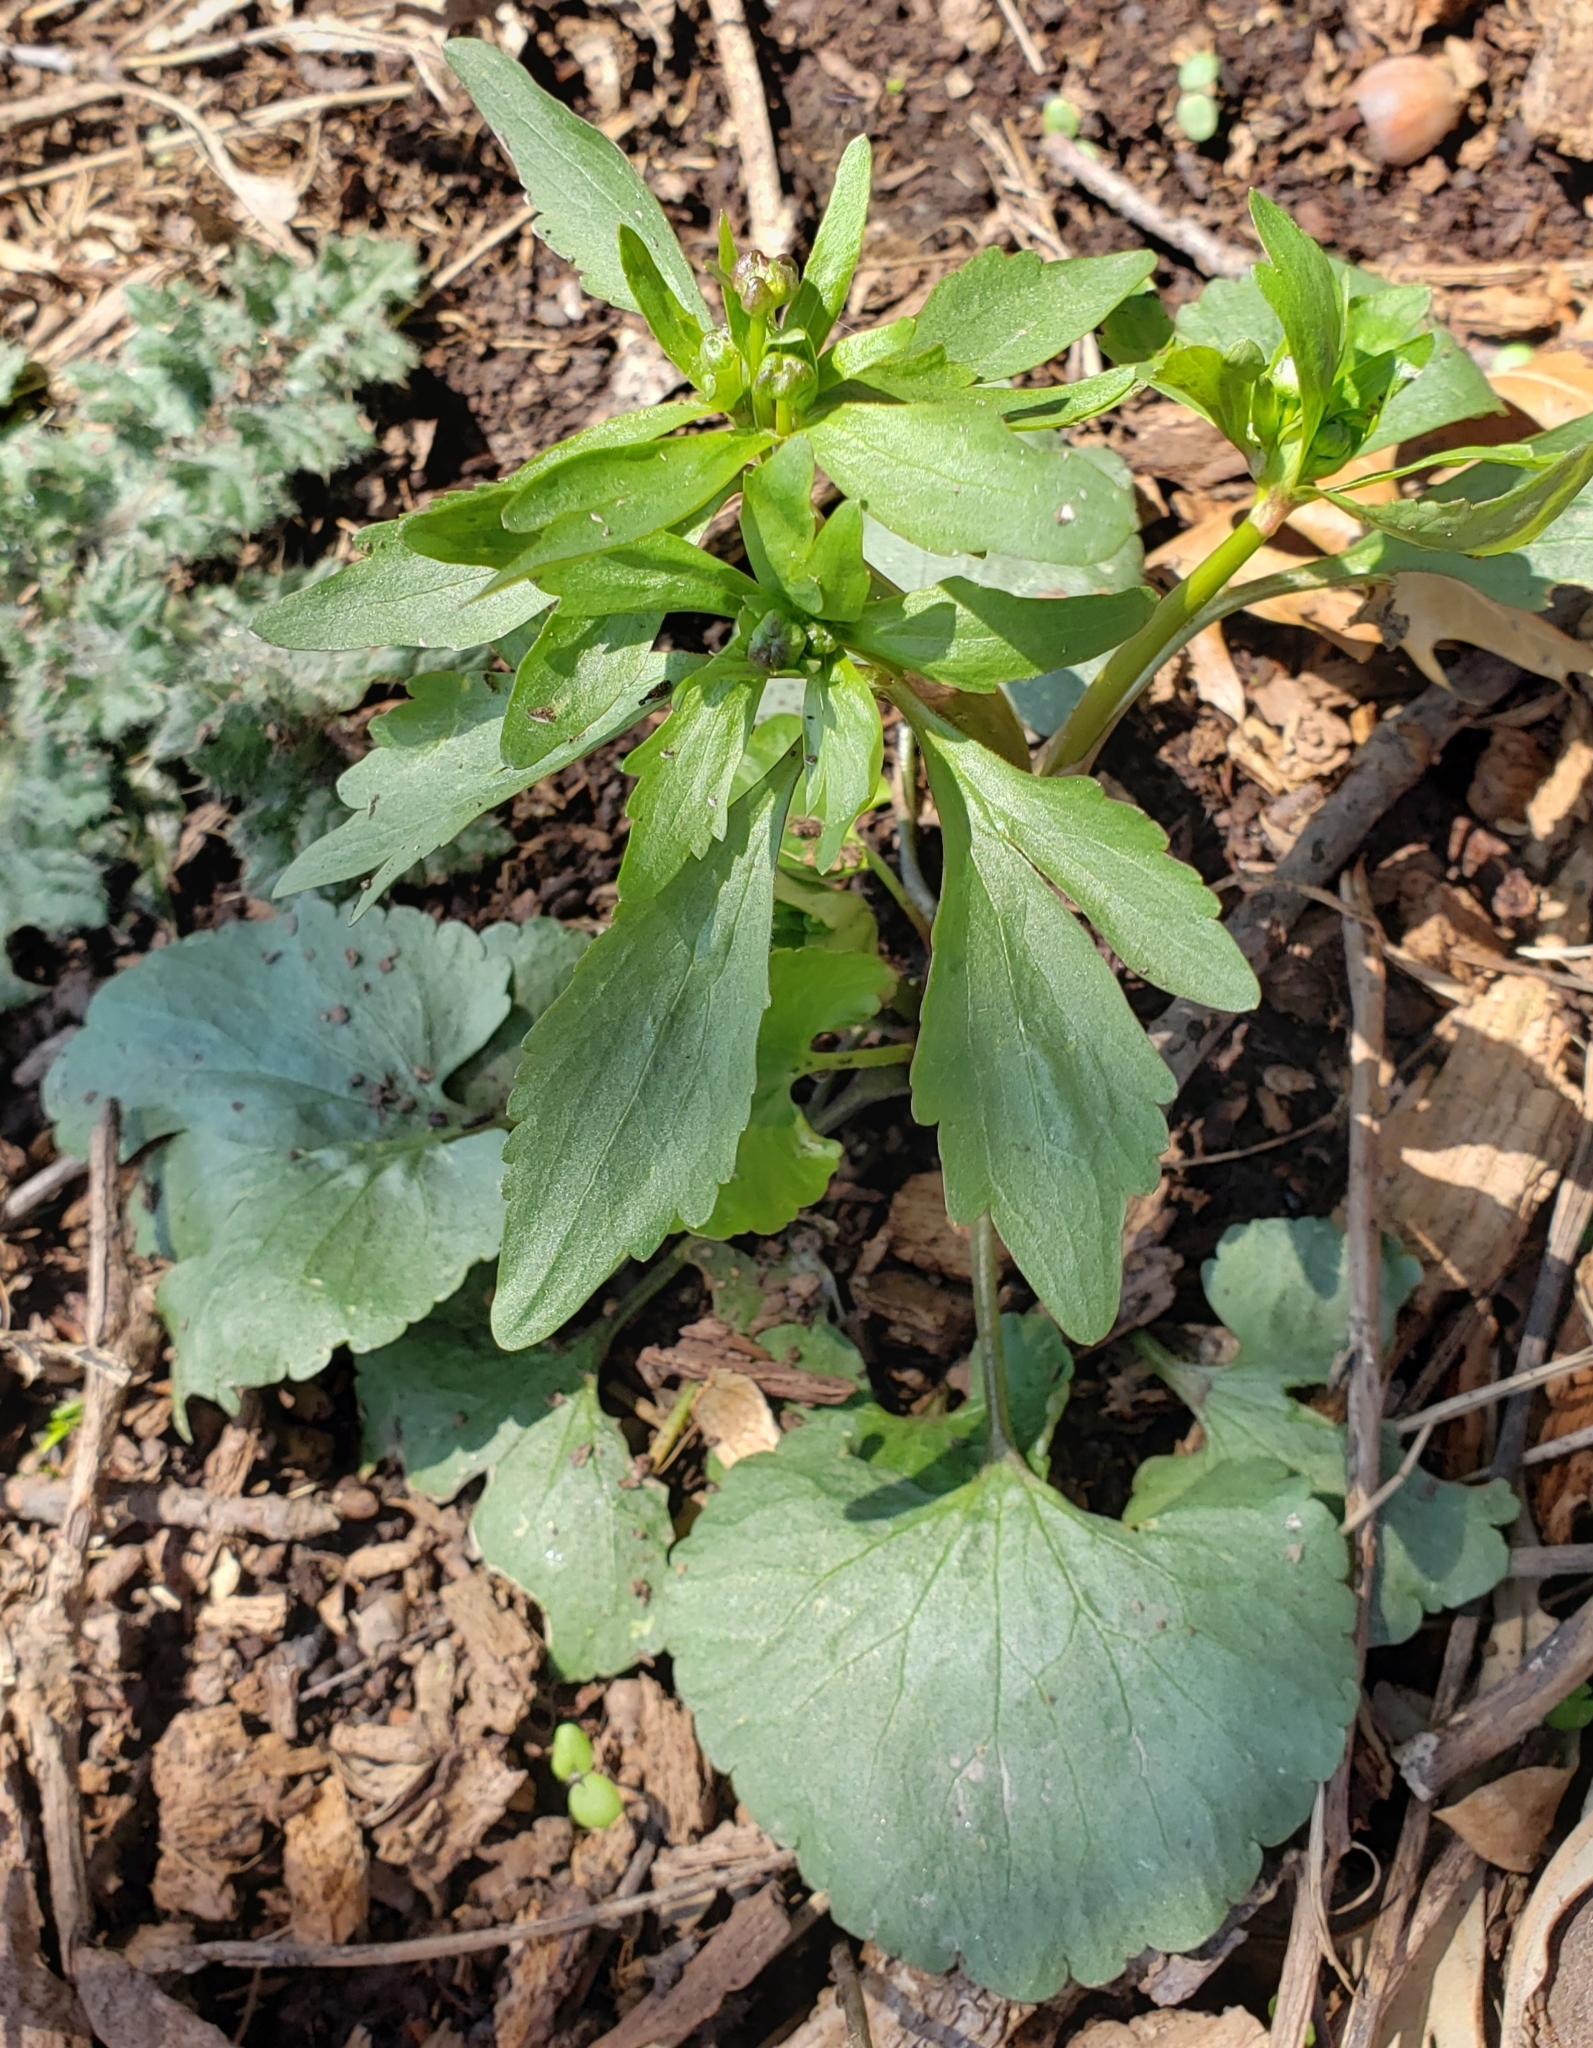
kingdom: Plantae
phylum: Tracheophyta
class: Magnoliopsida
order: Ranunculales
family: Ranunculaceae
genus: Ranunculus
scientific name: Ranunculus abortivus
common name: Early wood buttercup
